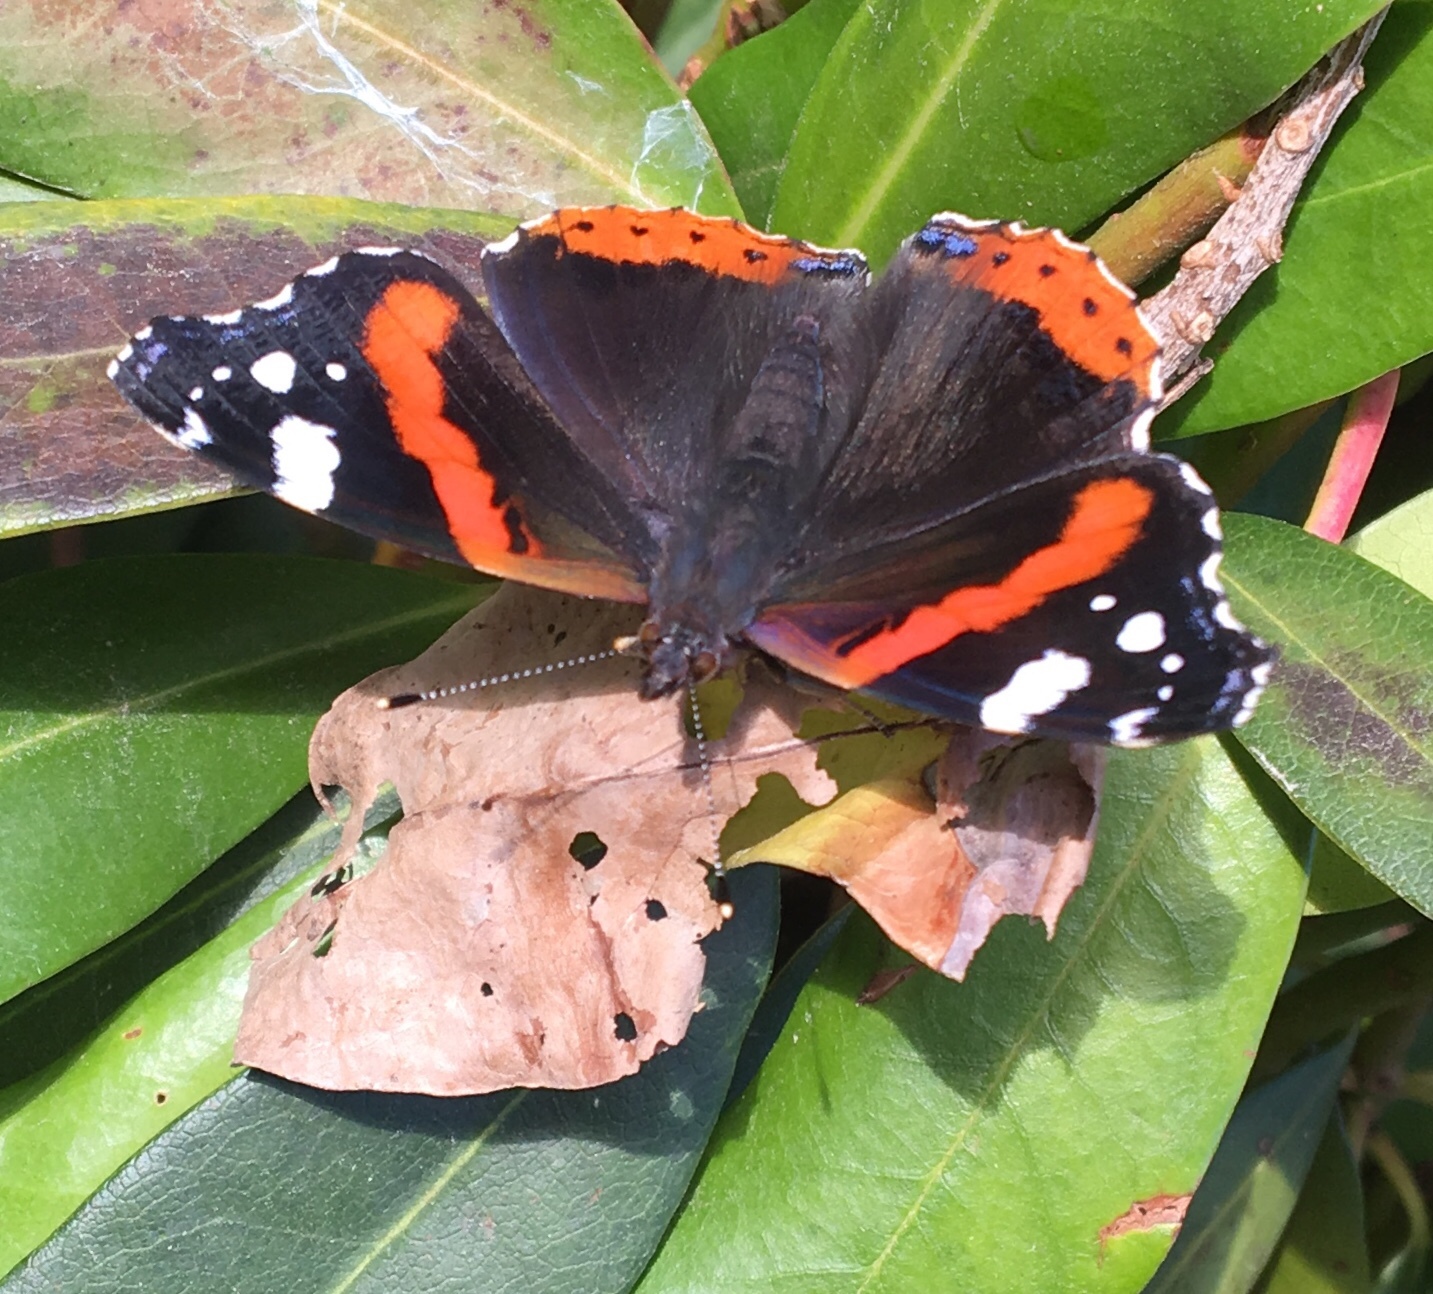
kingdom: Animalia
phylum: Arthropoda
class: Insecta
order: Lepidoptera
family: Nymphalidae
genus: Vanessa
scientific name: Vanessa atalanta
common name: Red admiral
